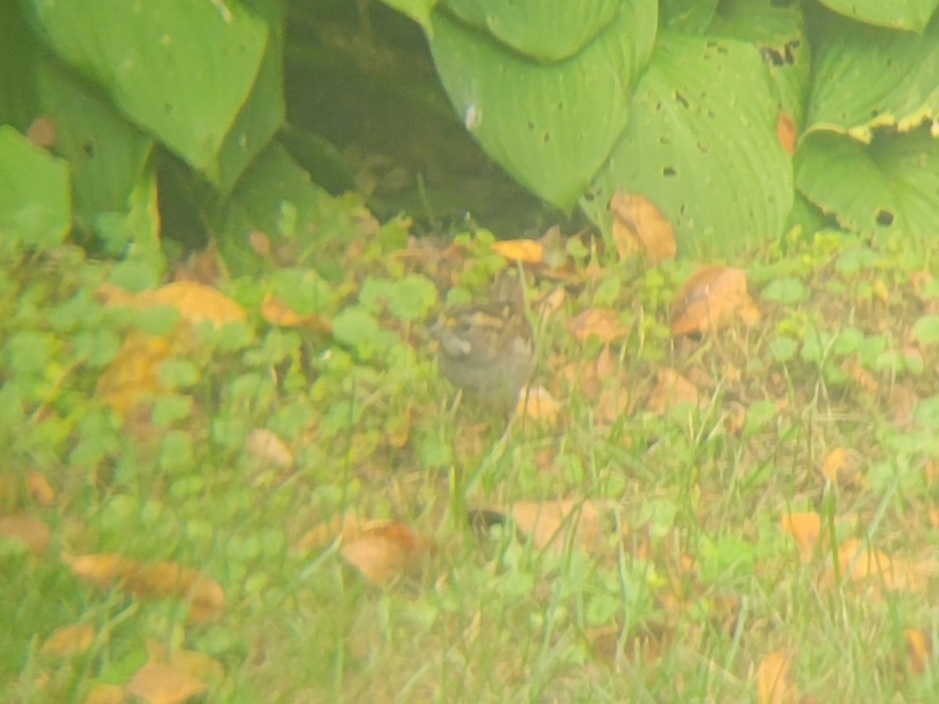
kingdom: Animalia
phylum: Chordata
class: Aves
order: Passeriformes
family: Passerellidae
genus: Zonotrichia
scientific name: Zonotrichia albicollis
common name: White-throated sparrow
